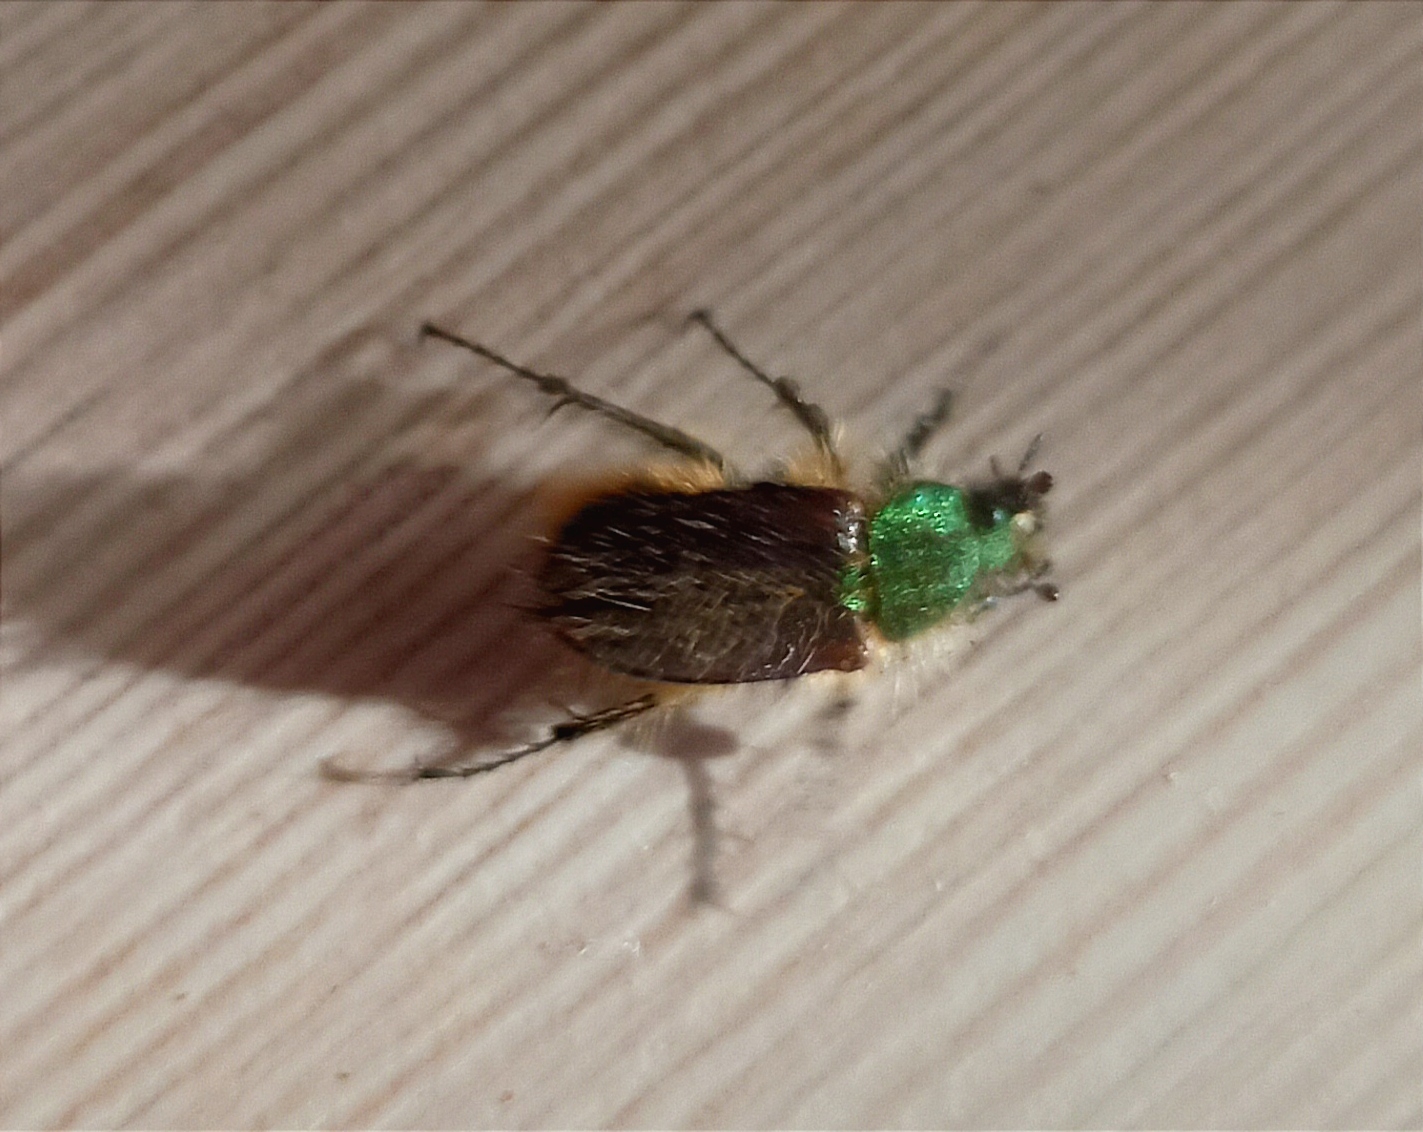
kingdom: Animalia
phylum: Arthropoda
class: Insecta
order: Coleoptera
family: Glaphyridae
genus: Pygopleurus
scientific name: Pygopleurus vulpes
